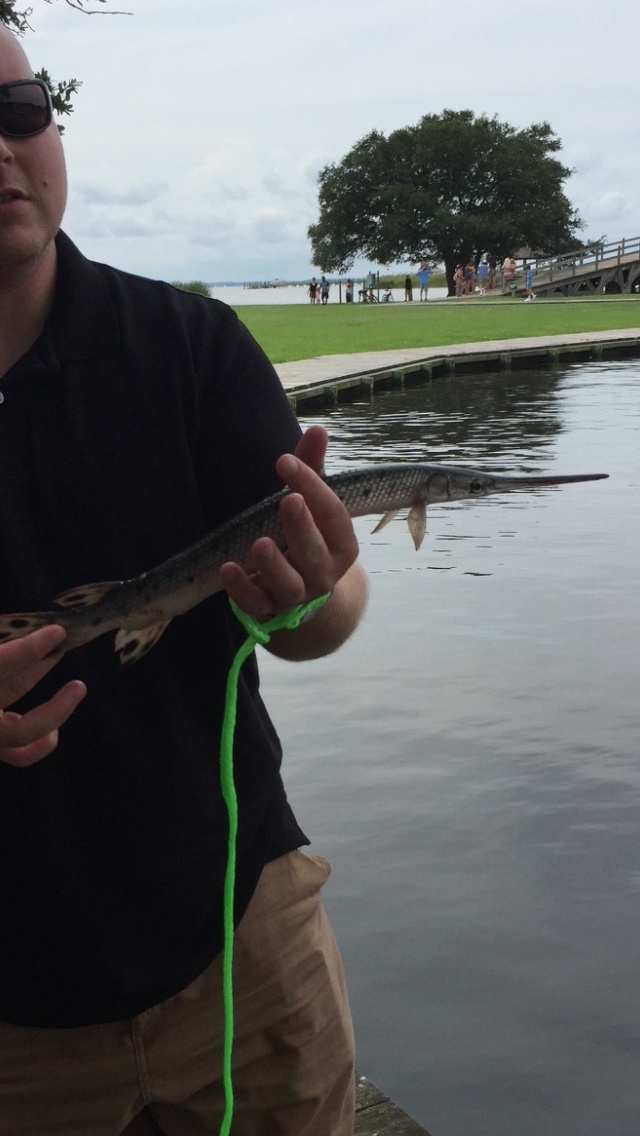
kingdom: Animalia
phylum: Chordata
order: Lepisosteiformes
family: Lepisosteidae
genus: Lepisosteus
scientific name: Lepisosteus osseus
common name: Longnose gar
